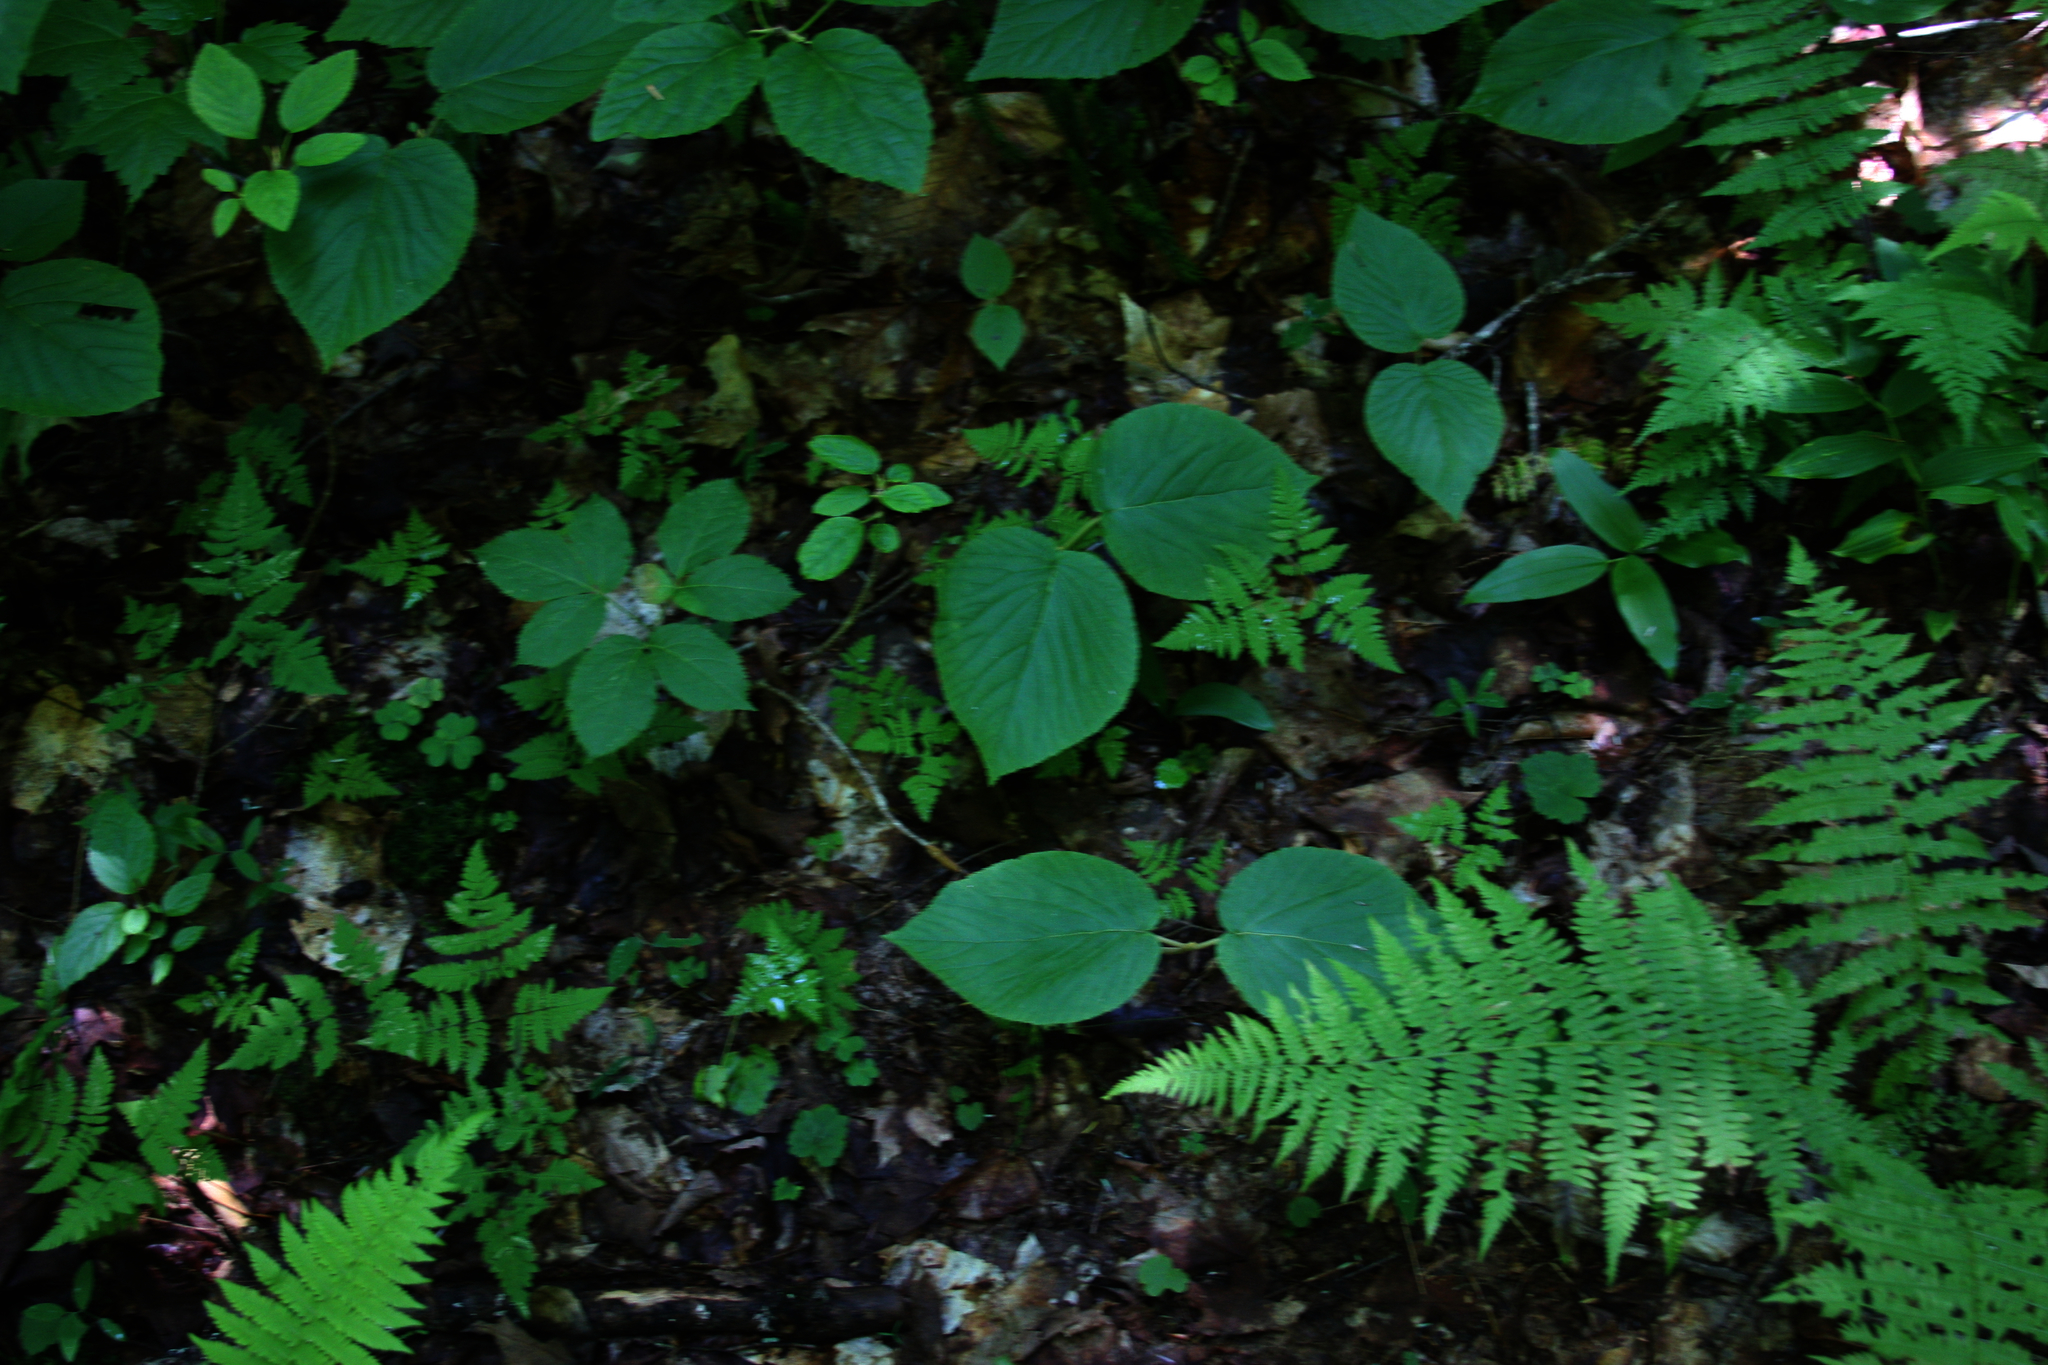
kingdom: Plantae
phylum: Tracheophyta
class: Magnoliopsida
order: Apiales
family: Araliaceae
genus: Aralia
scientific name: Aralia nudicaulis
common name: Wild sarsaparilla
